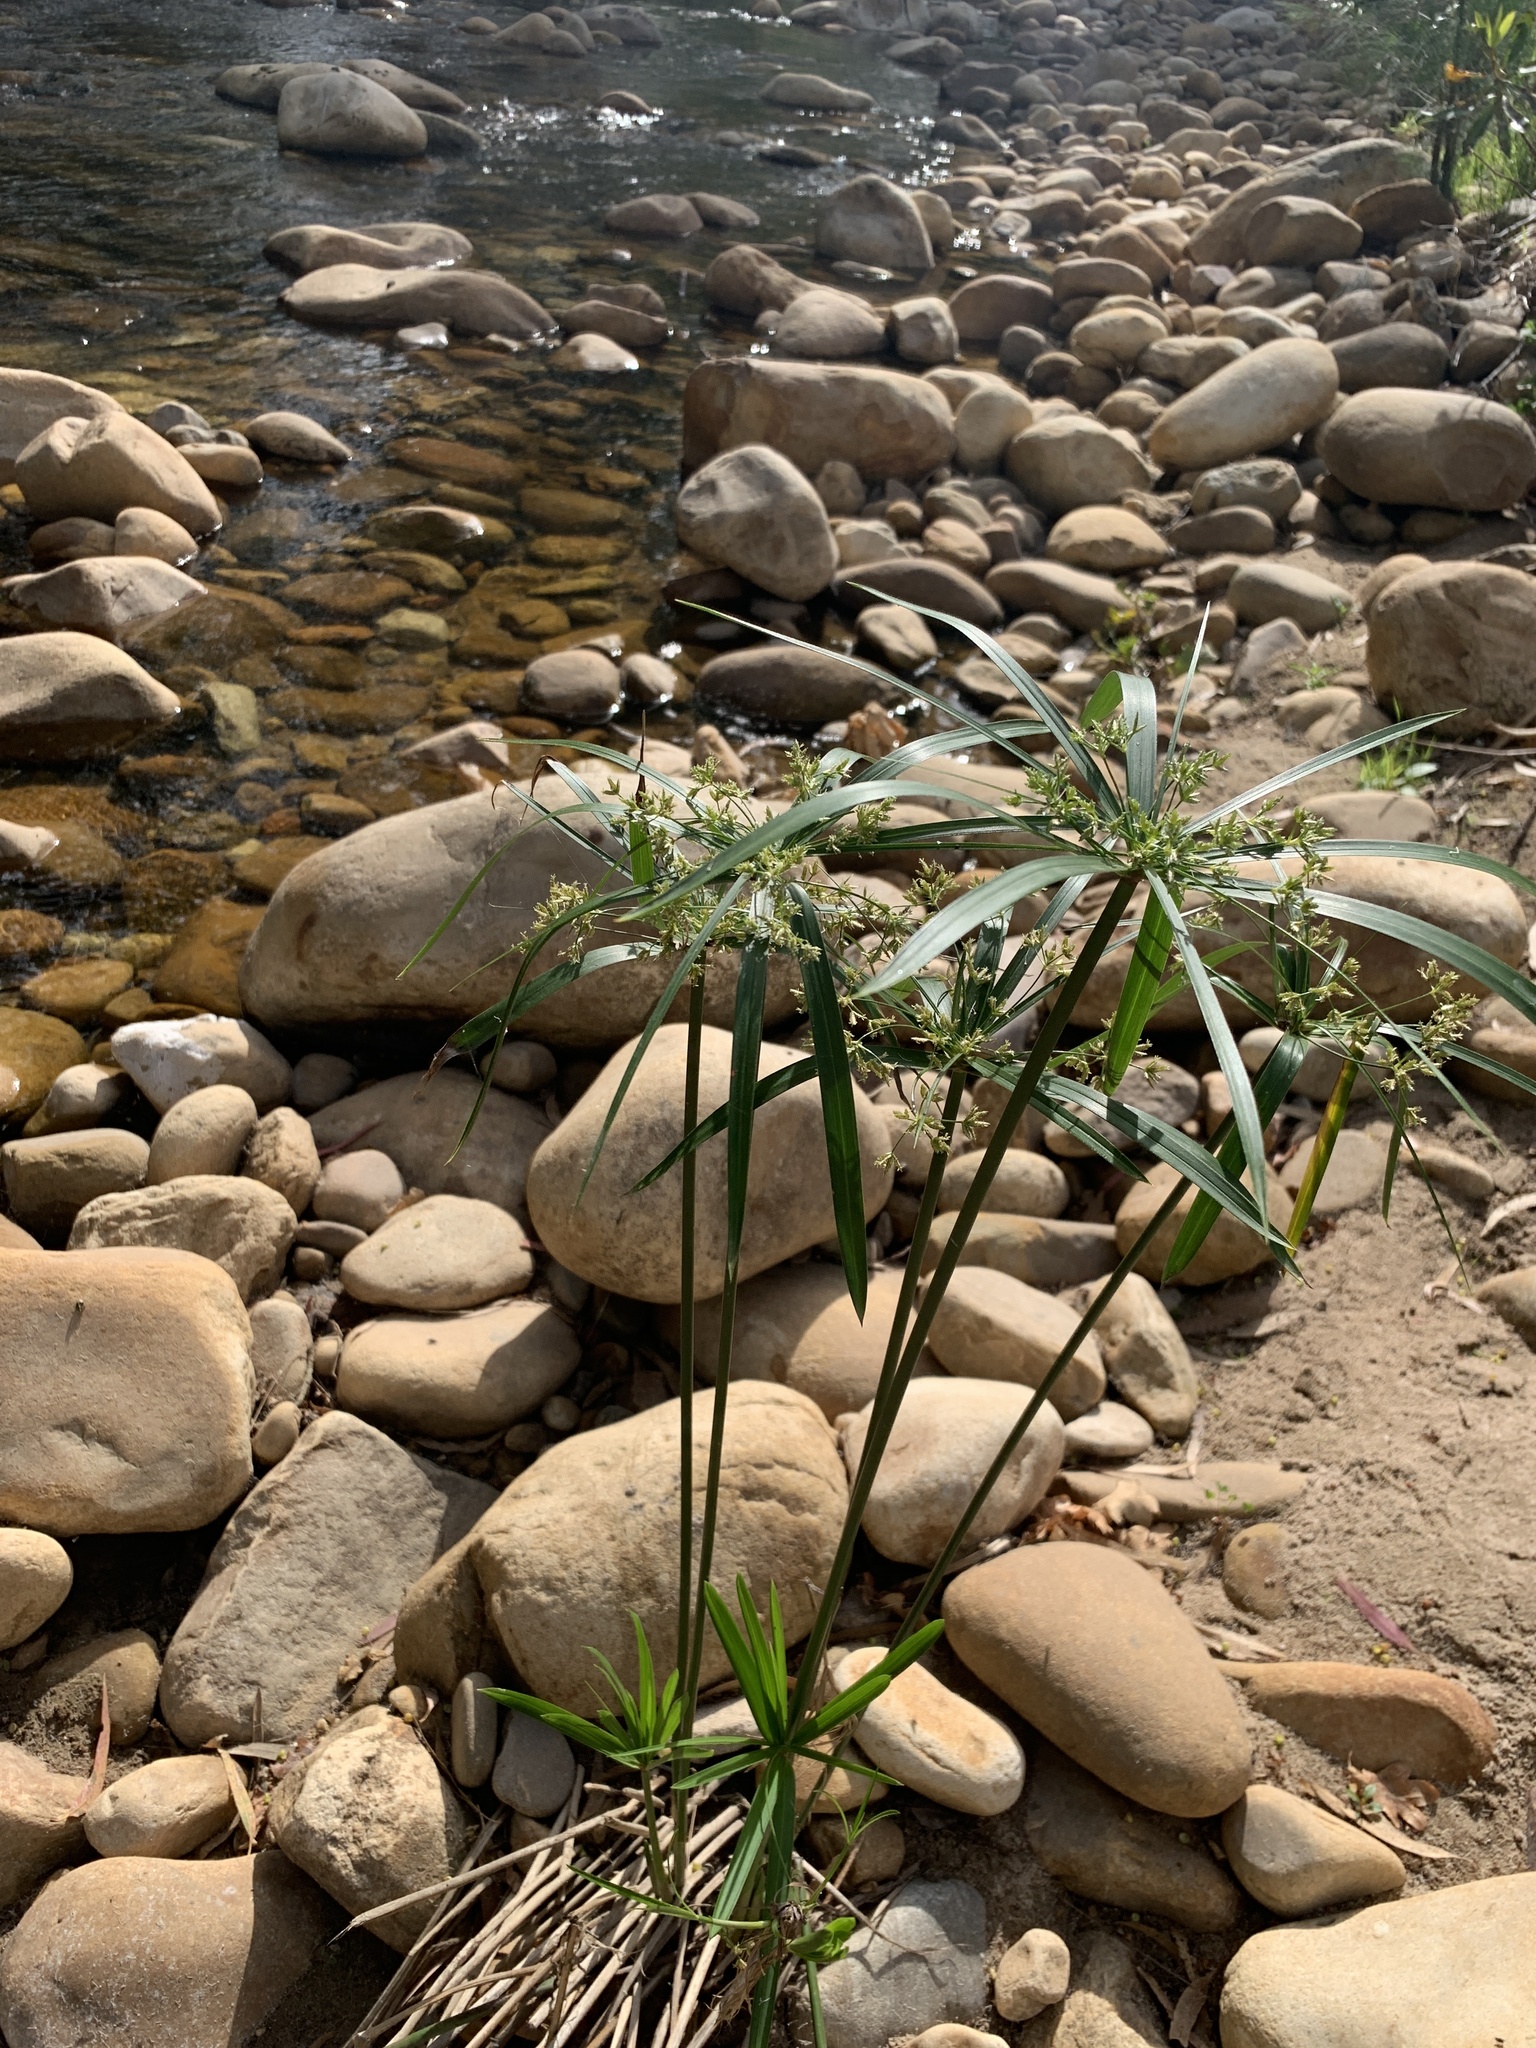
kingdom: Plantae
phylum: Tracheophyta
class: Liliopsida
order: Poales
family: Cyperaceae
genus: Cyperus
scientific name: Cyperus textilis
